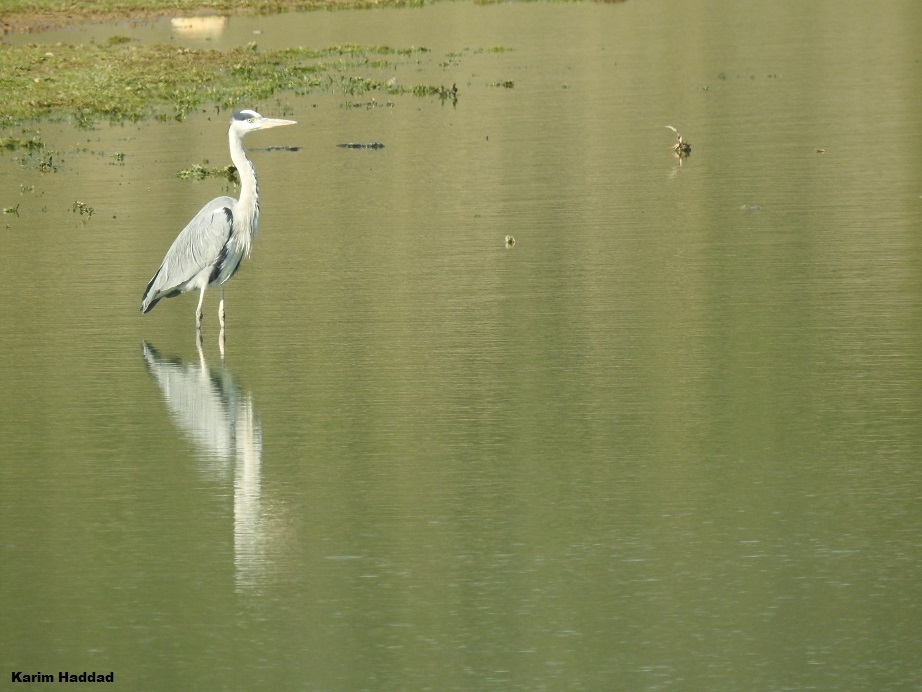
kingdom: Animalia
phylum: Chordata
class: Aves
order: Pelecaniformes
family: Ardeidae
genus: Ardea
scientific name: Ardea cinerea
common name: Grey heron
